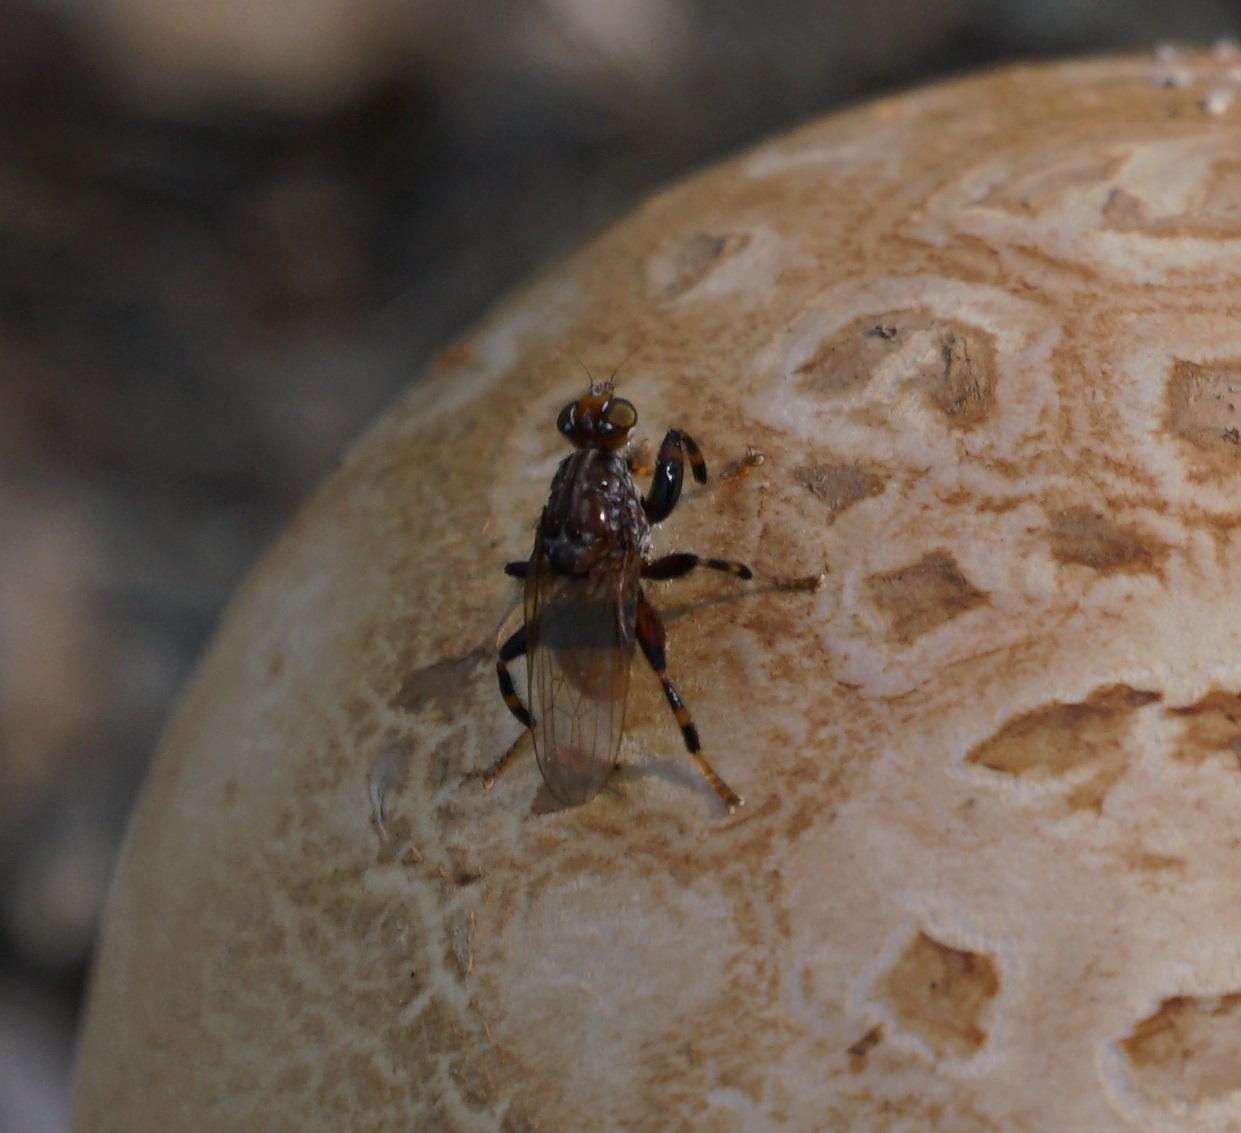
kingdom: Animalia
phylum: Arthropoda
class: Insecta
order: Diptera
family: Heleomyzidae
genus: Tapeigaster
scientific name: Tapeigaster brunneifrons
